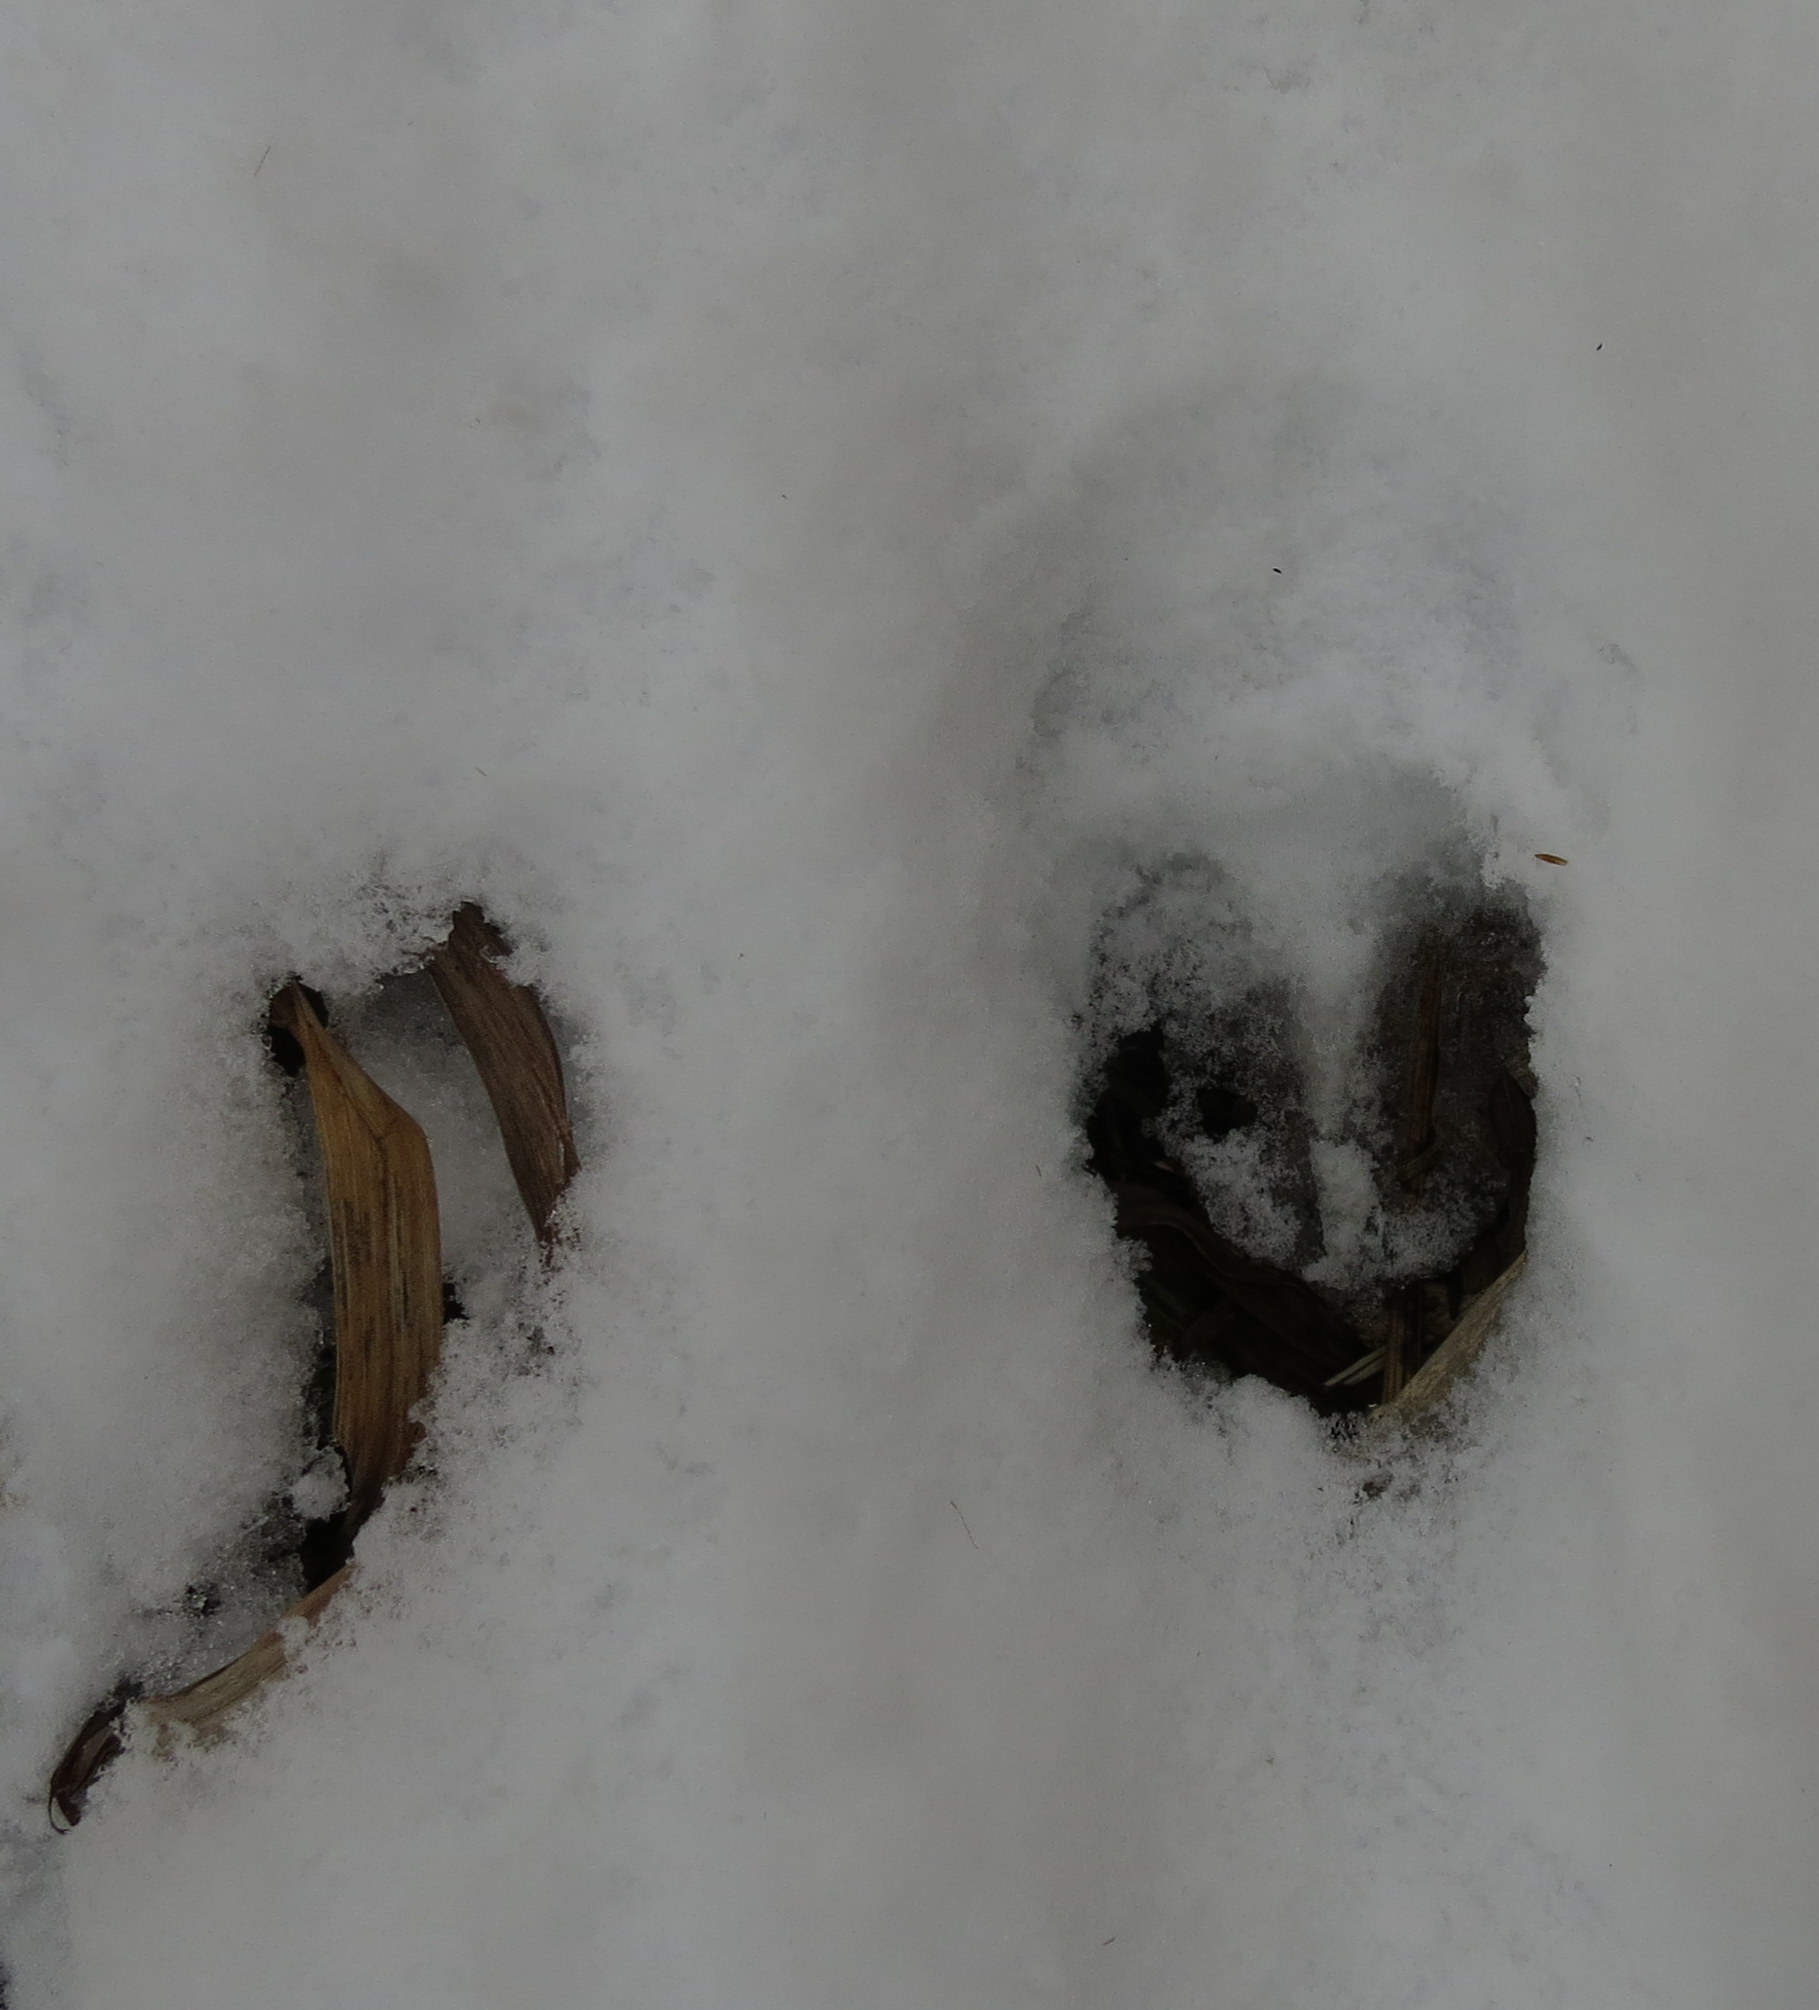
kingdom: Animalia
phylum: Chordata
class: Mammalia
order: Artiodactyla
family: Cervidae
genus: Odocoileus
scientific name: Odocoileus virginianus
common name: White-tailed deer
